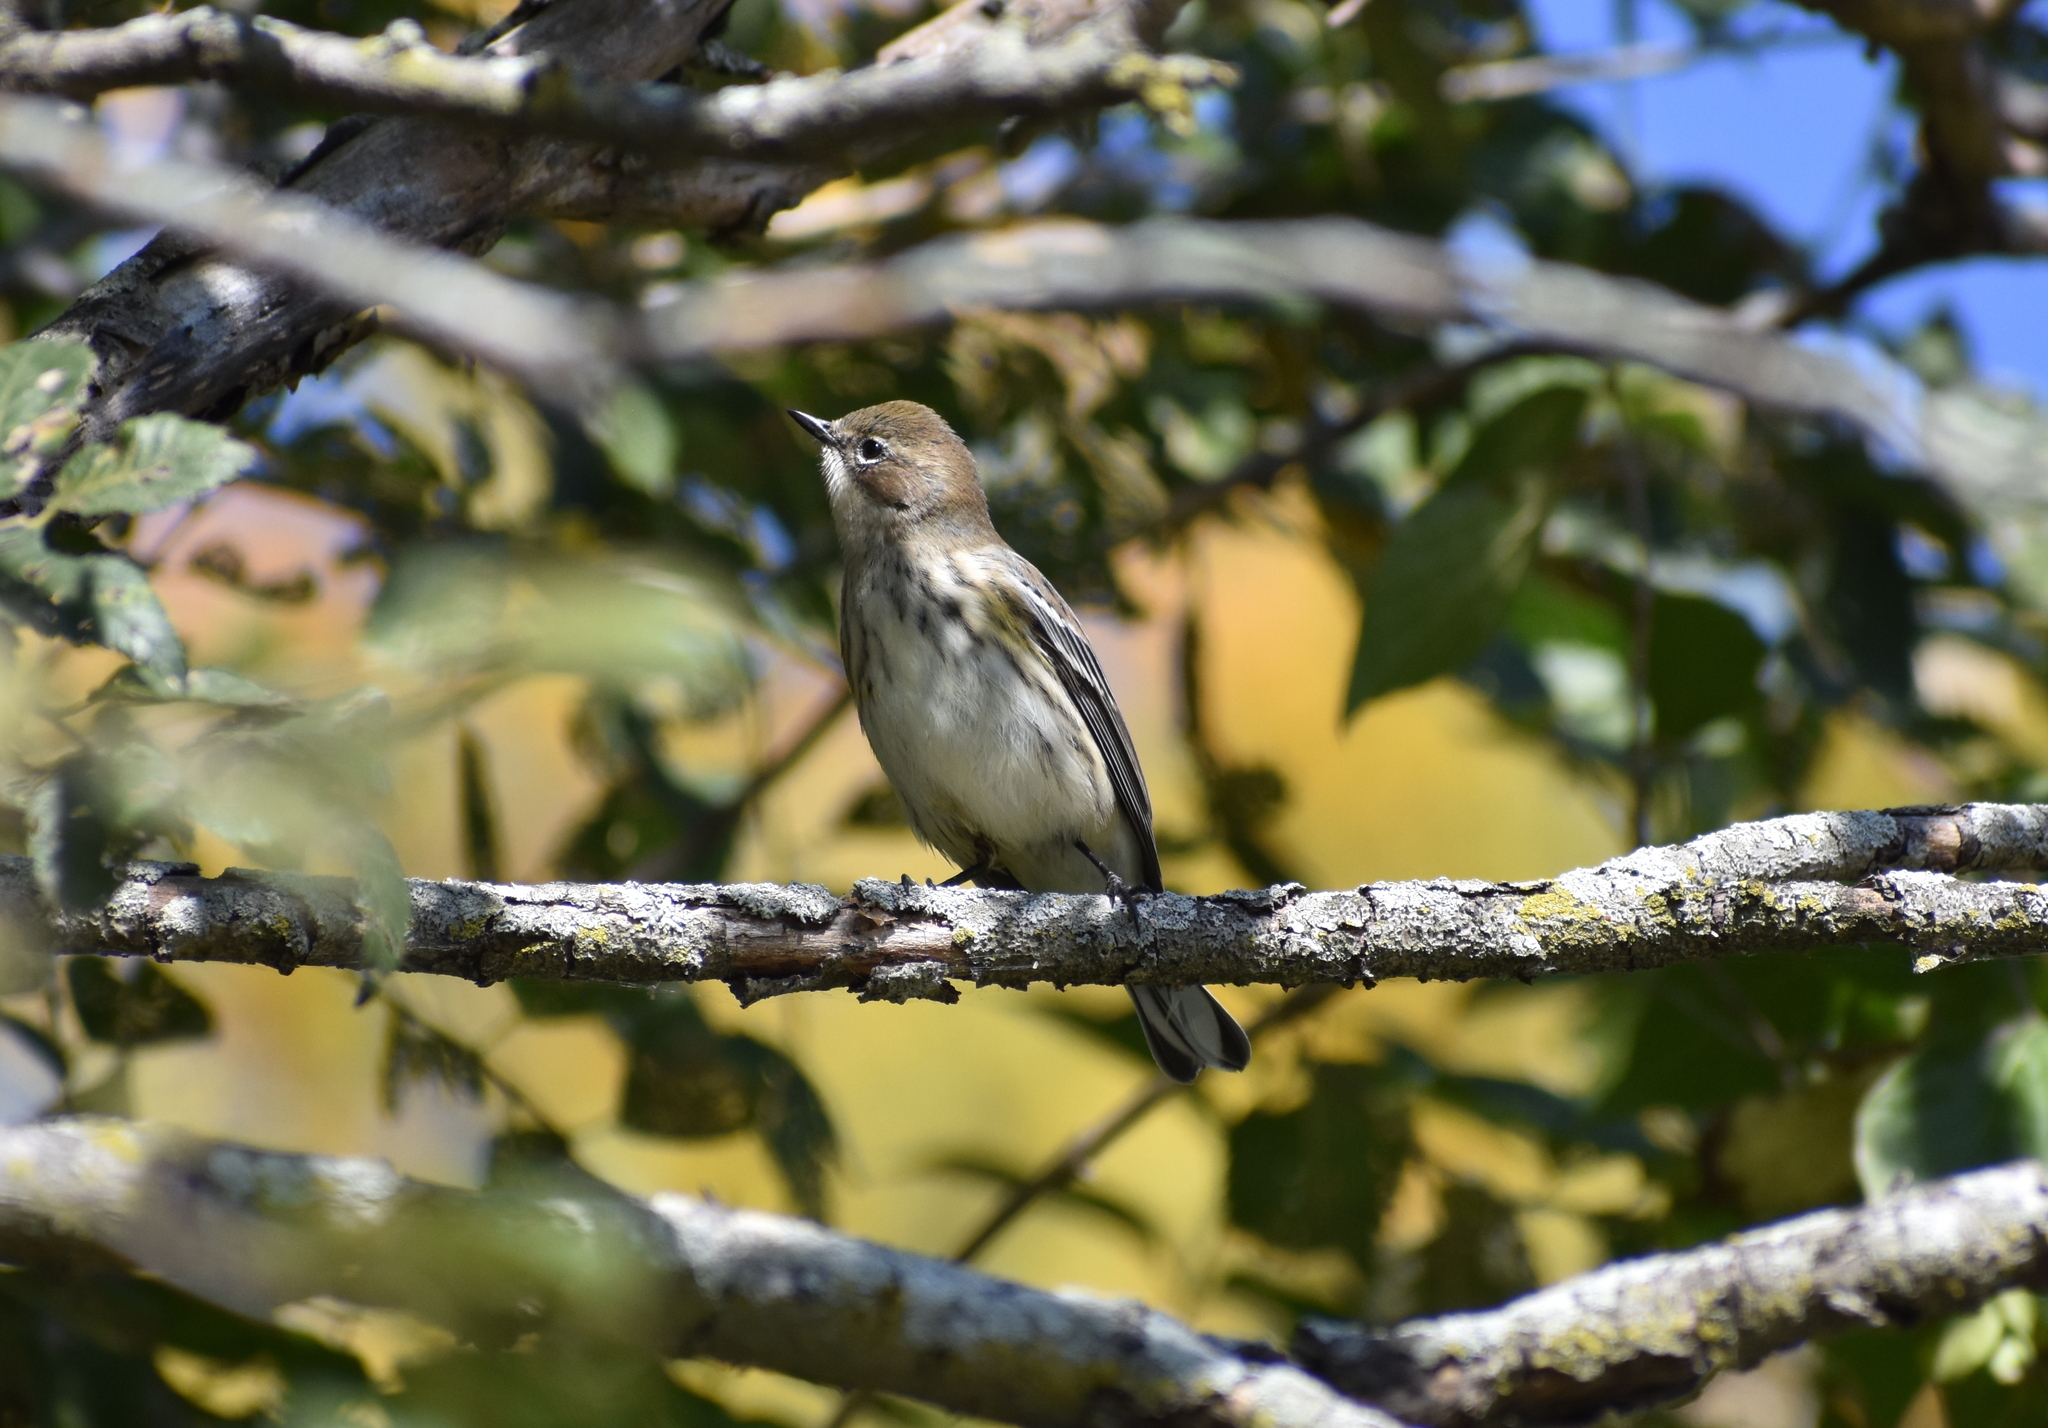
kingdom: Animalia
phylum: Chordata
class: Aves
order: Passeriformes
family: Parulidae
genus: Setophaga
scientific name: Setophaga coronata
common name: Myrtle warbler
